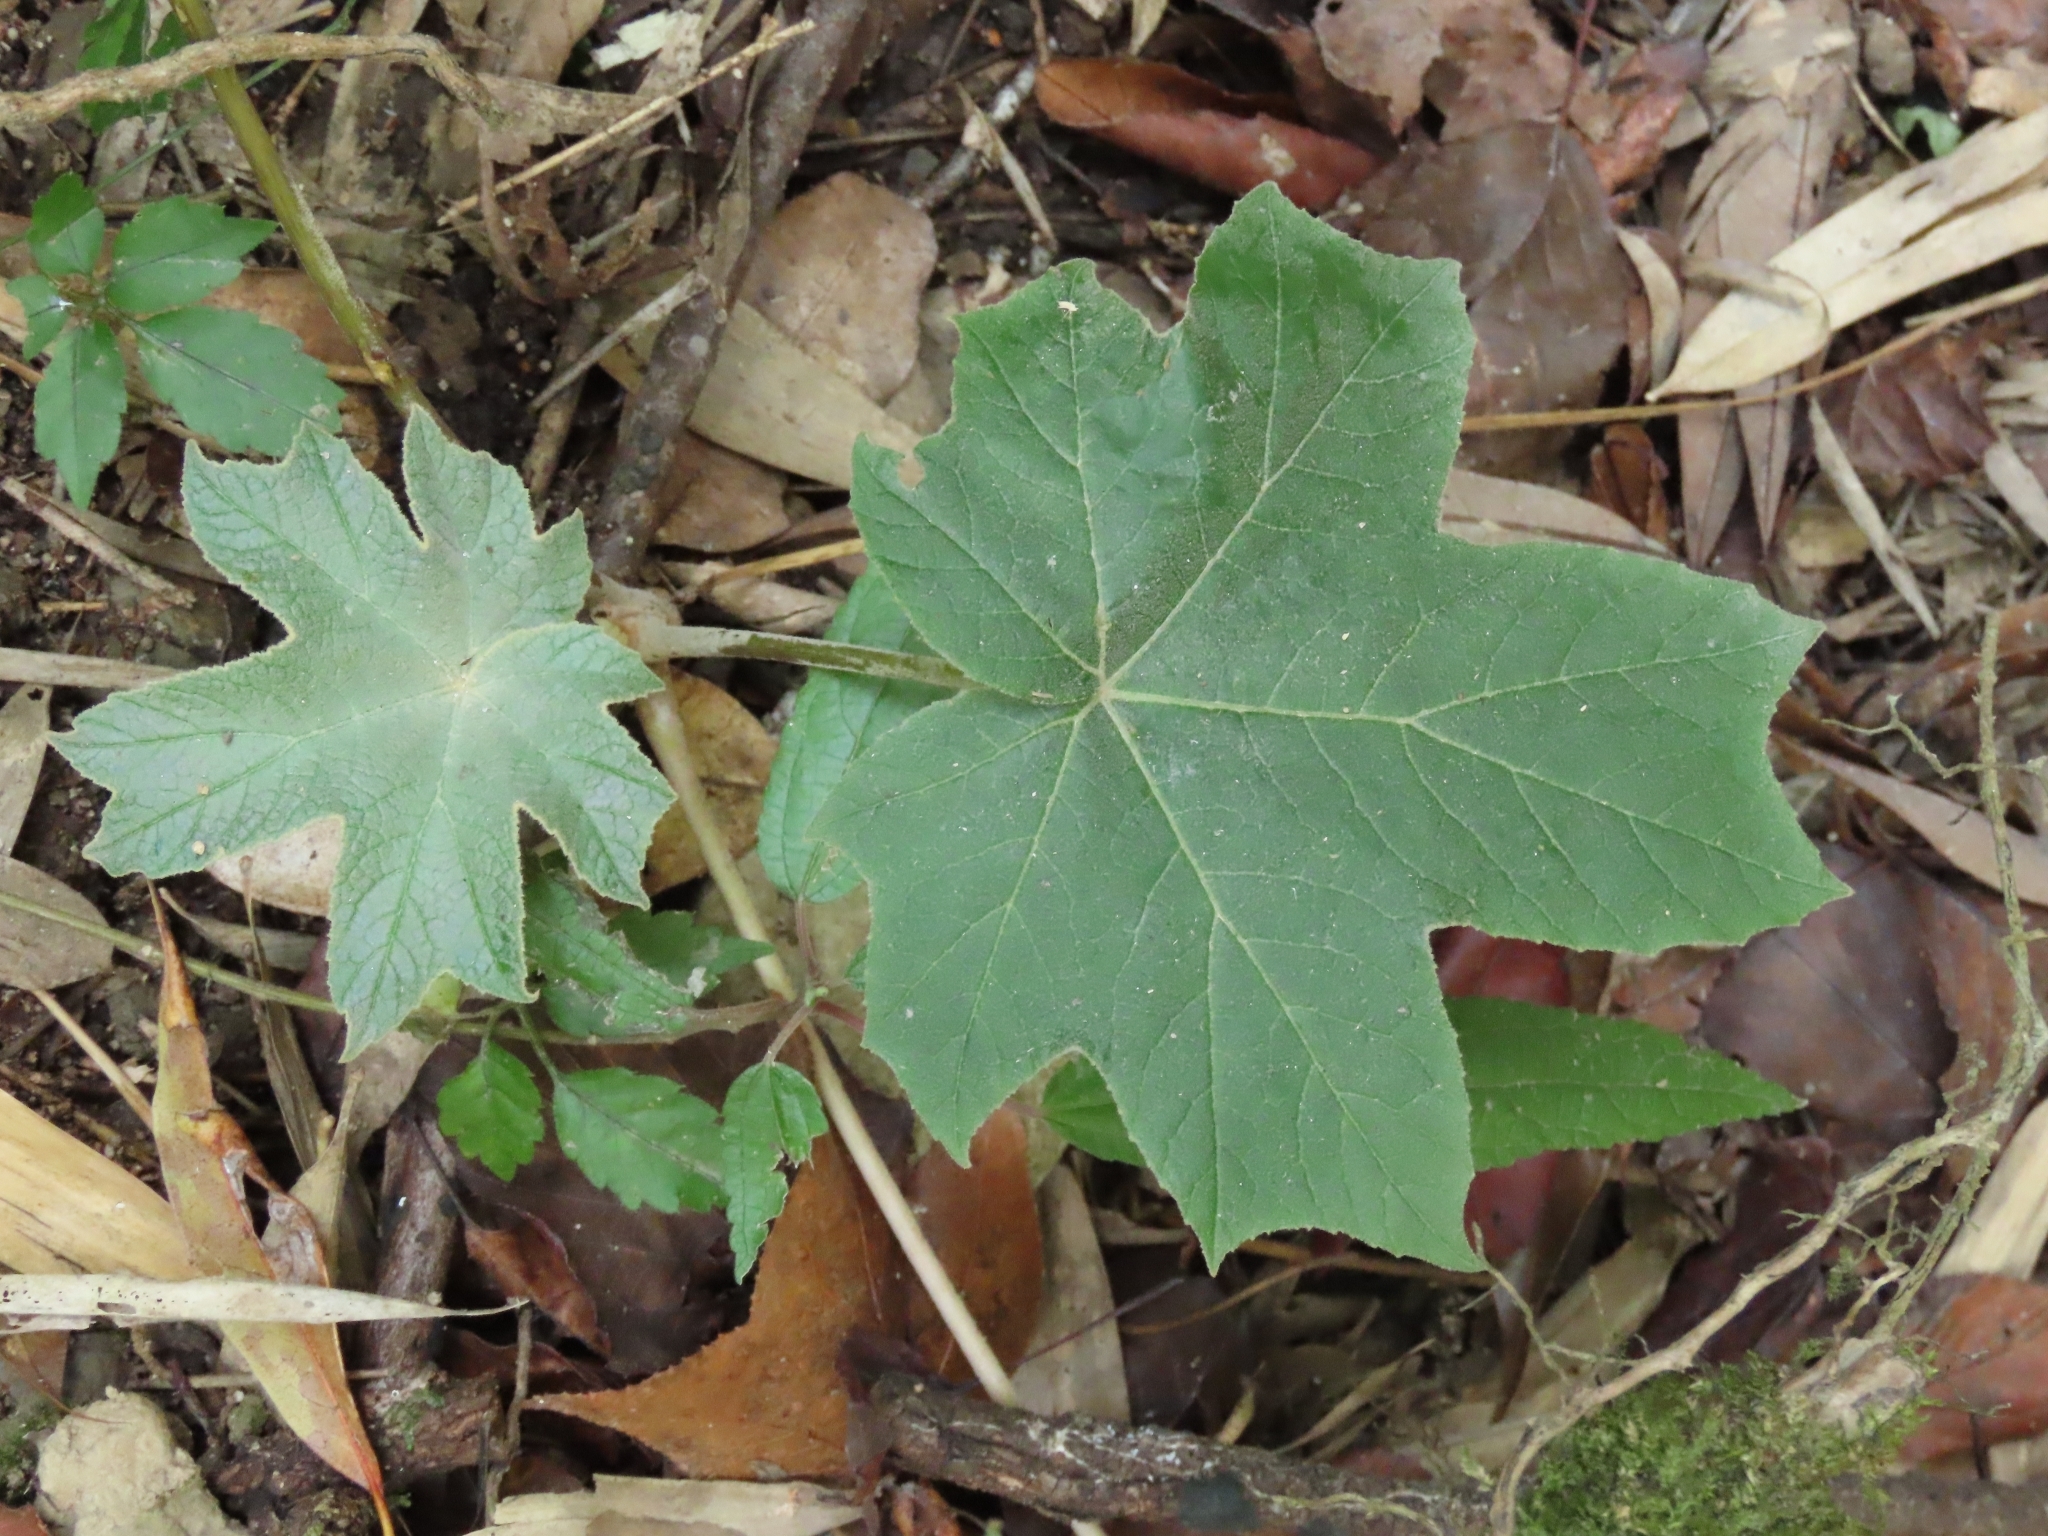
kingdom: Plantae
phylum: Tracheophyta
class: Magnoliopsida
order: Apiales
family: Araliaceae
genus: Tetrapanax
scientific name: Tetrapanax papyrifer
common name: Rice-paper plant
